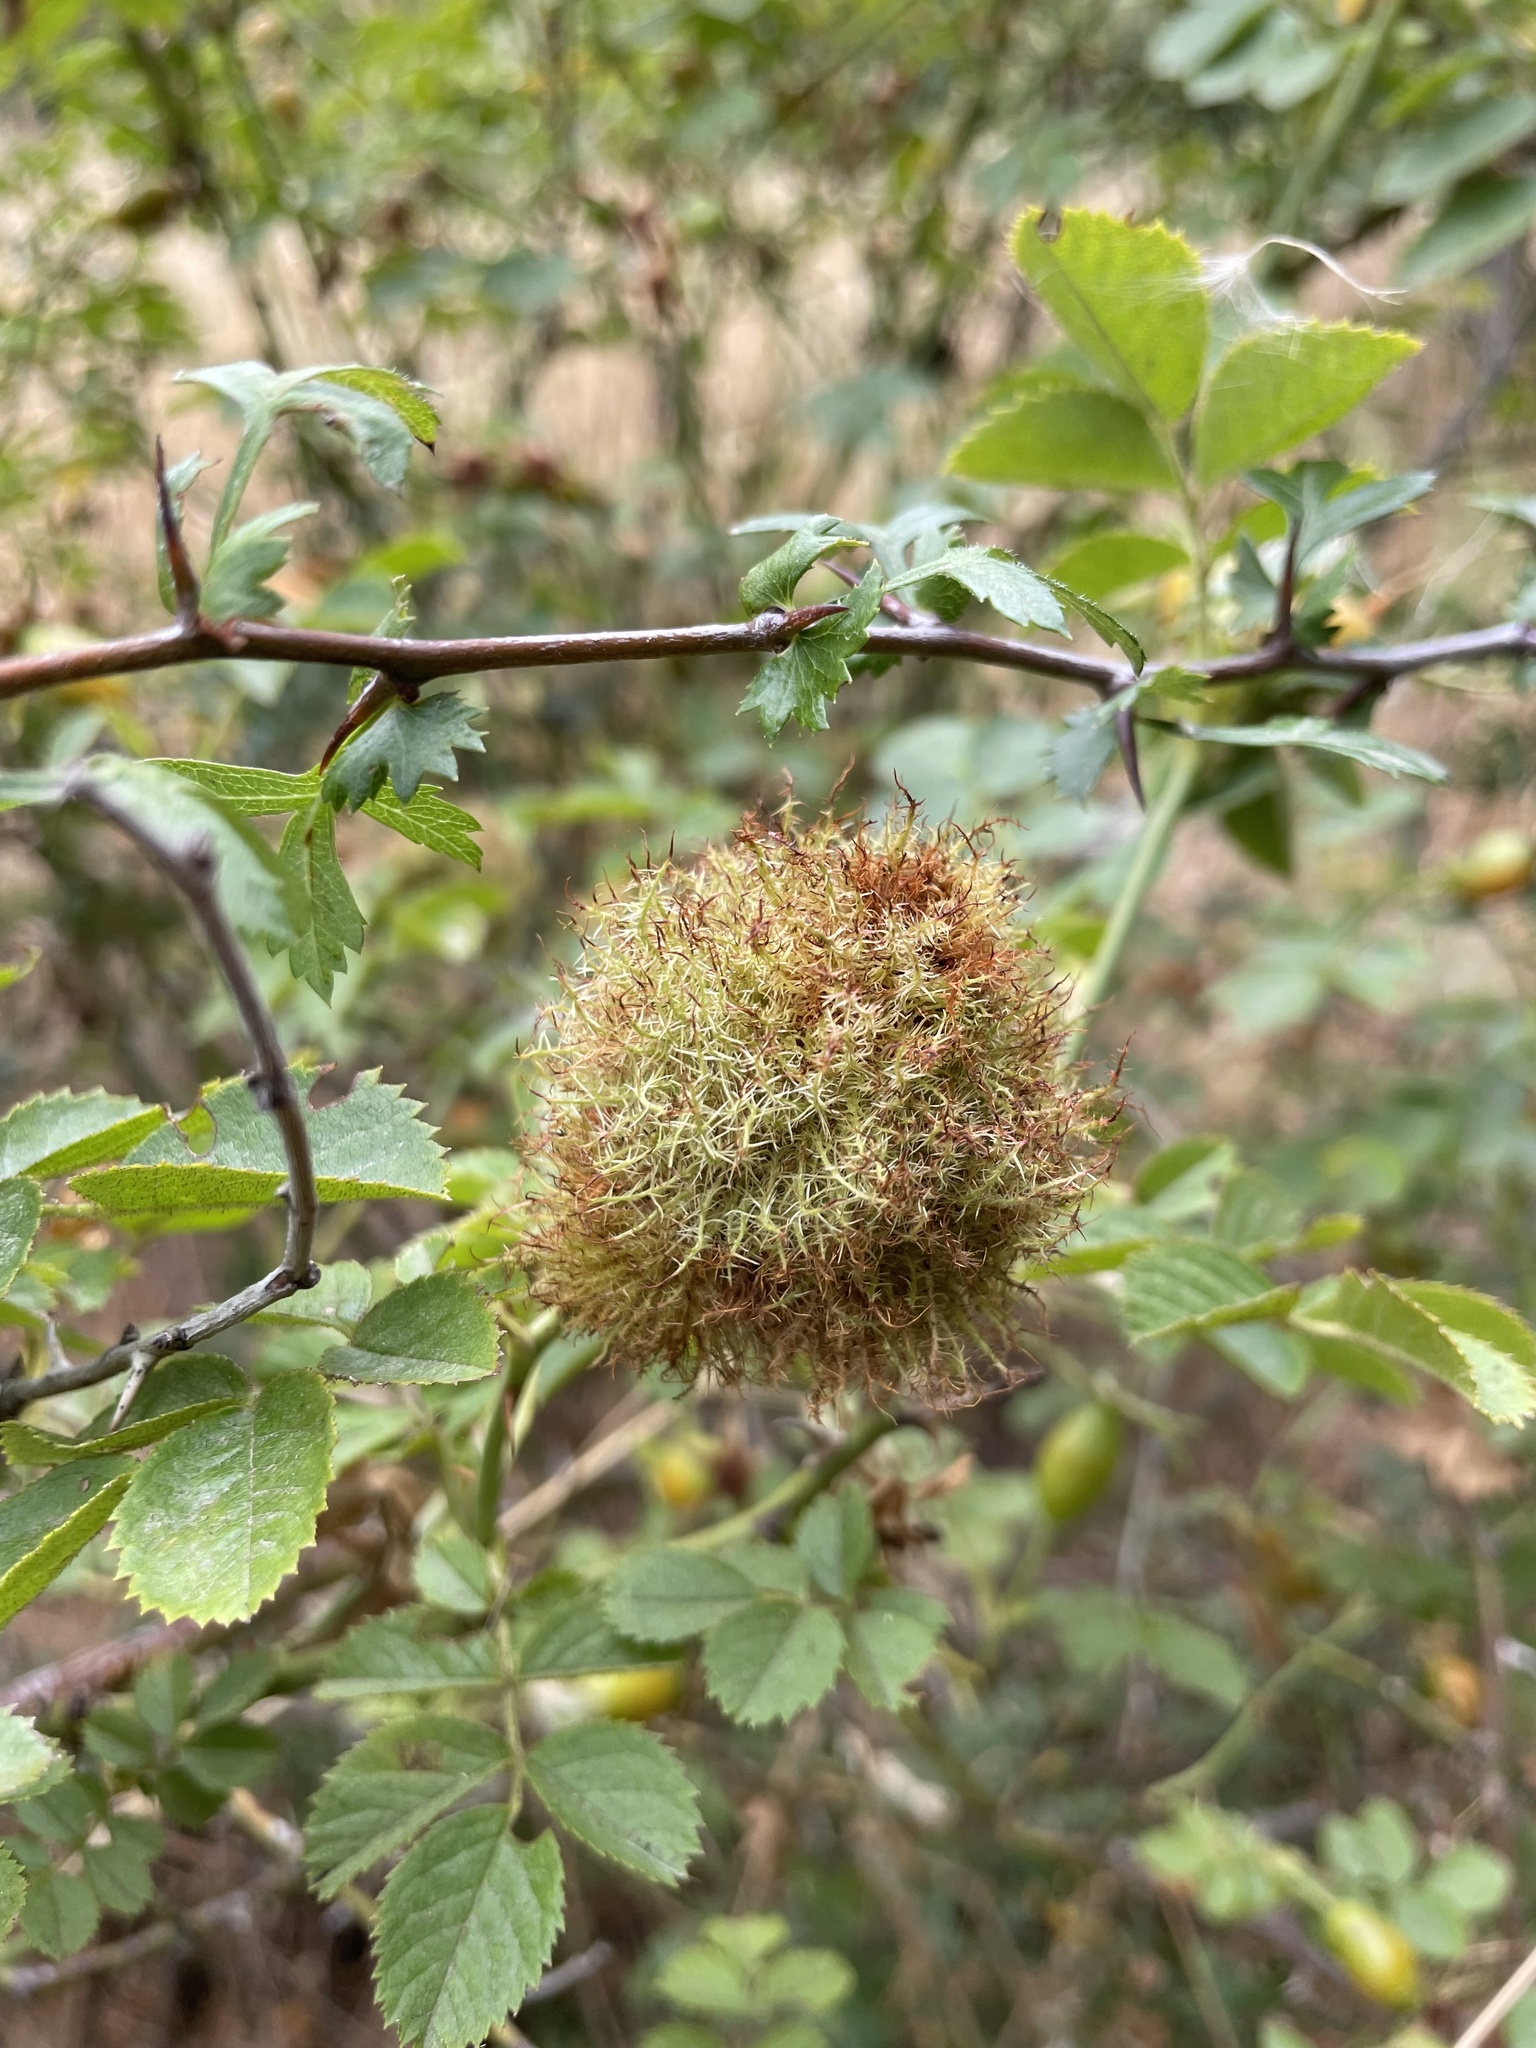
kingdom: Animalia
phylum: Arthropoda
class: Insecta
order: Hymenoptera
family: Cynipidae
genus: Diplolepis
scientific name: Diplolepis rosae
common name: Bedeguar gall
